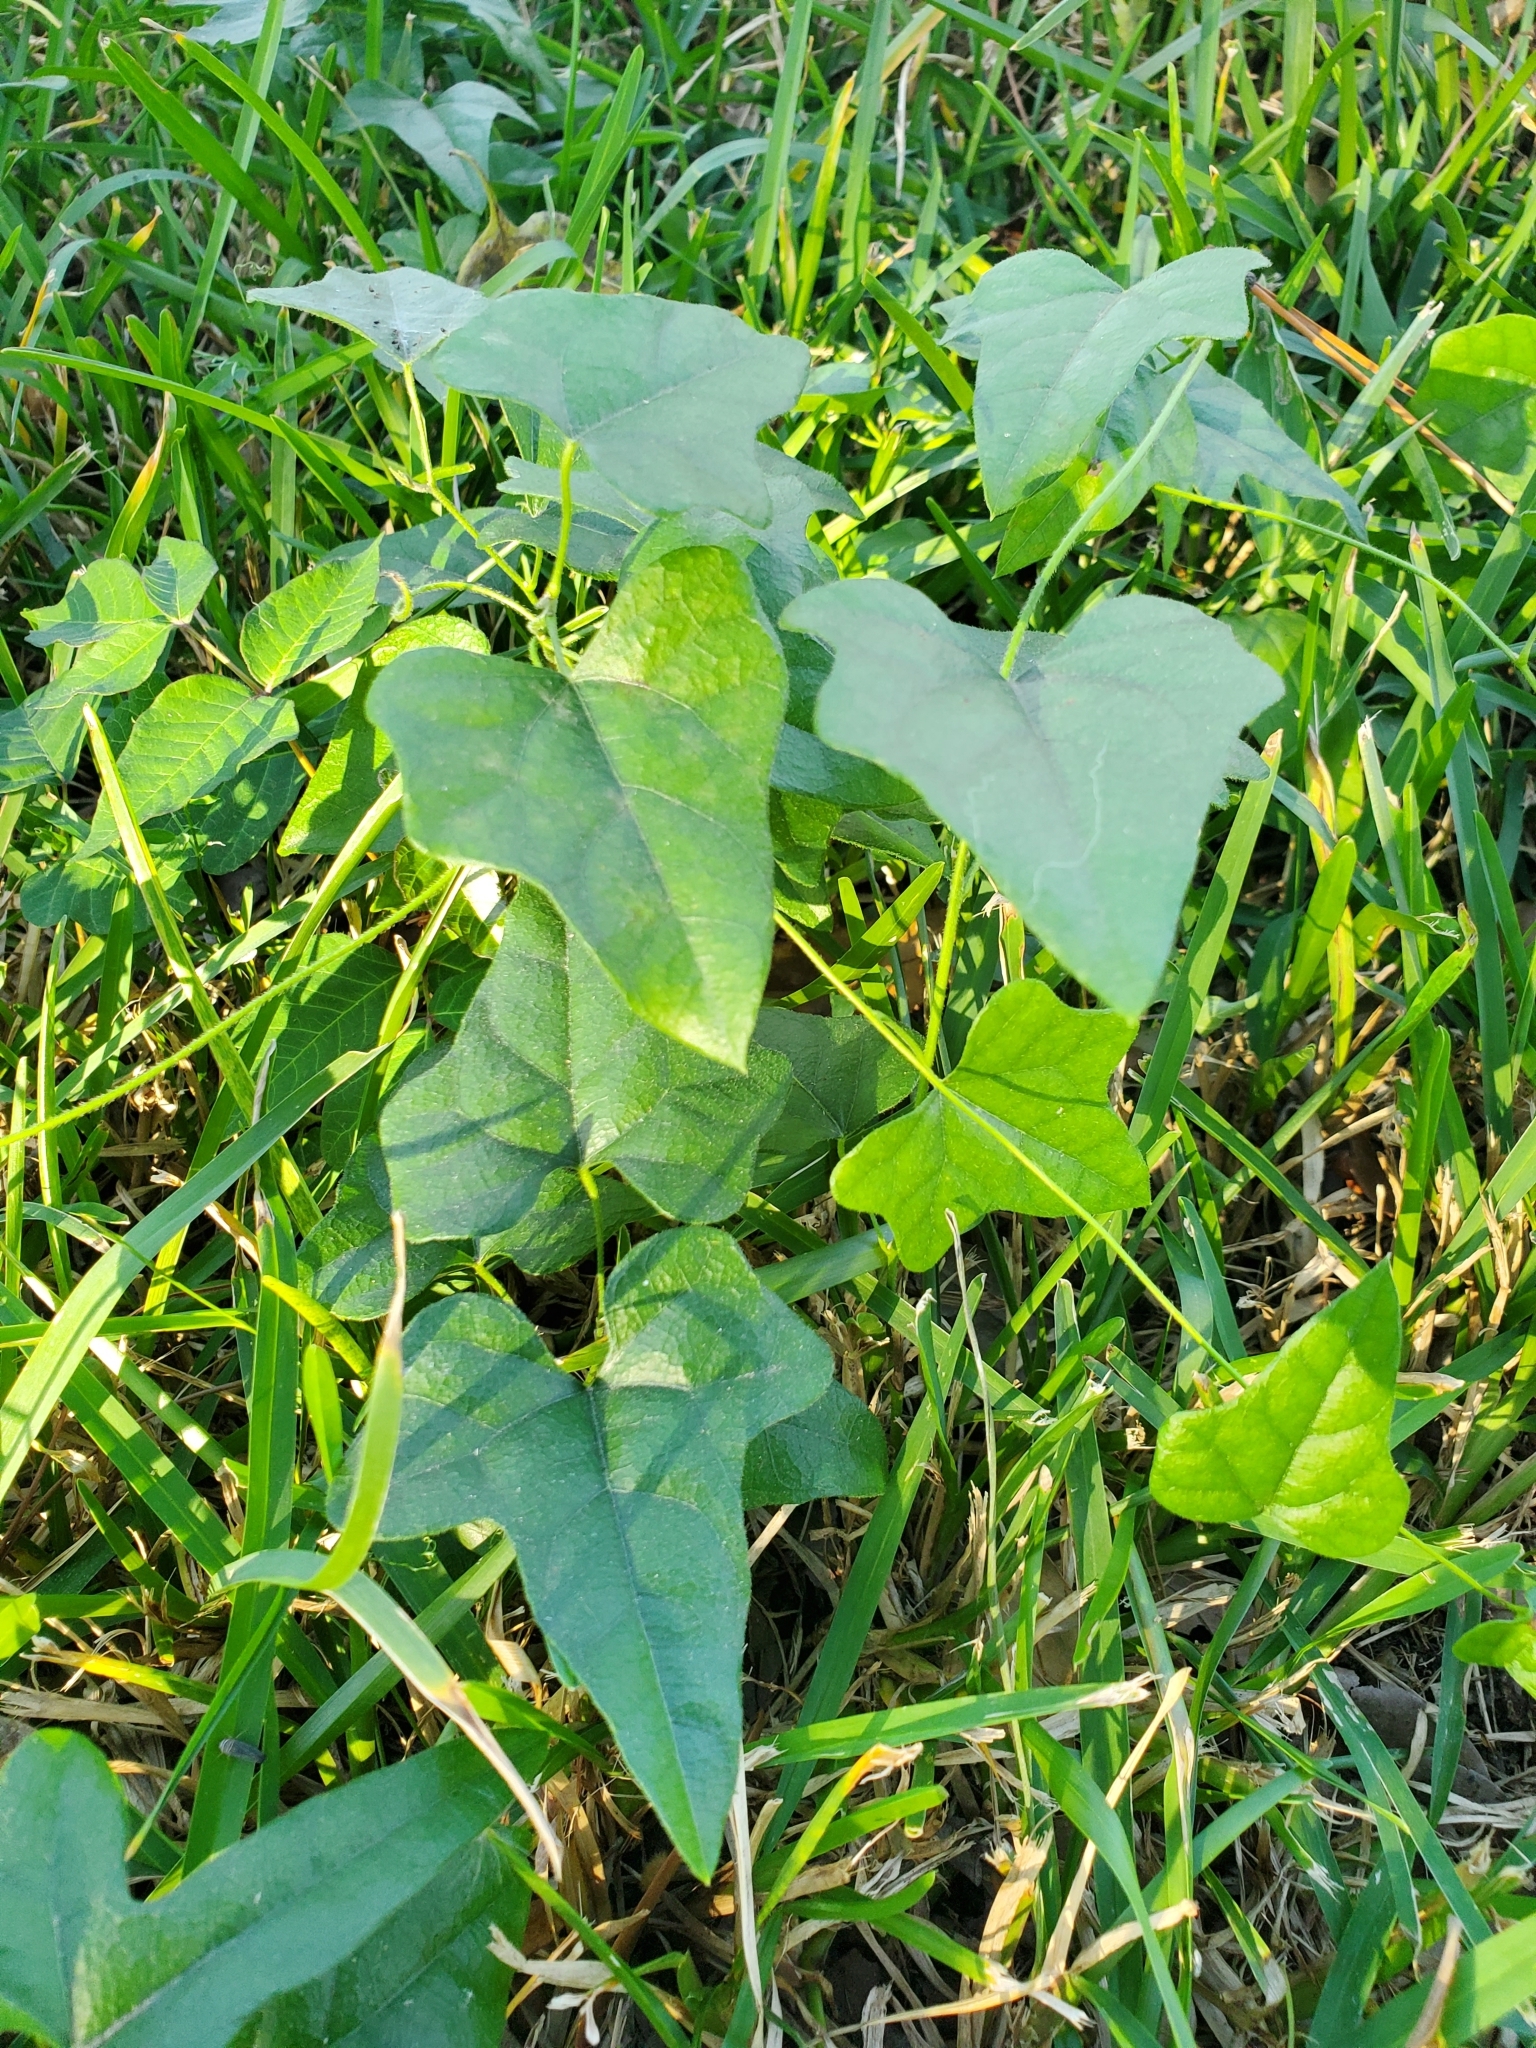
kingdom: Plantae
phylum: Tracheophyta
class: Magnoliopsida
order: Ranunculales
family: Menispermaceae
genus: Cocculus
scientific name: Cocculus carolinus
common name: Carolina moonseed
